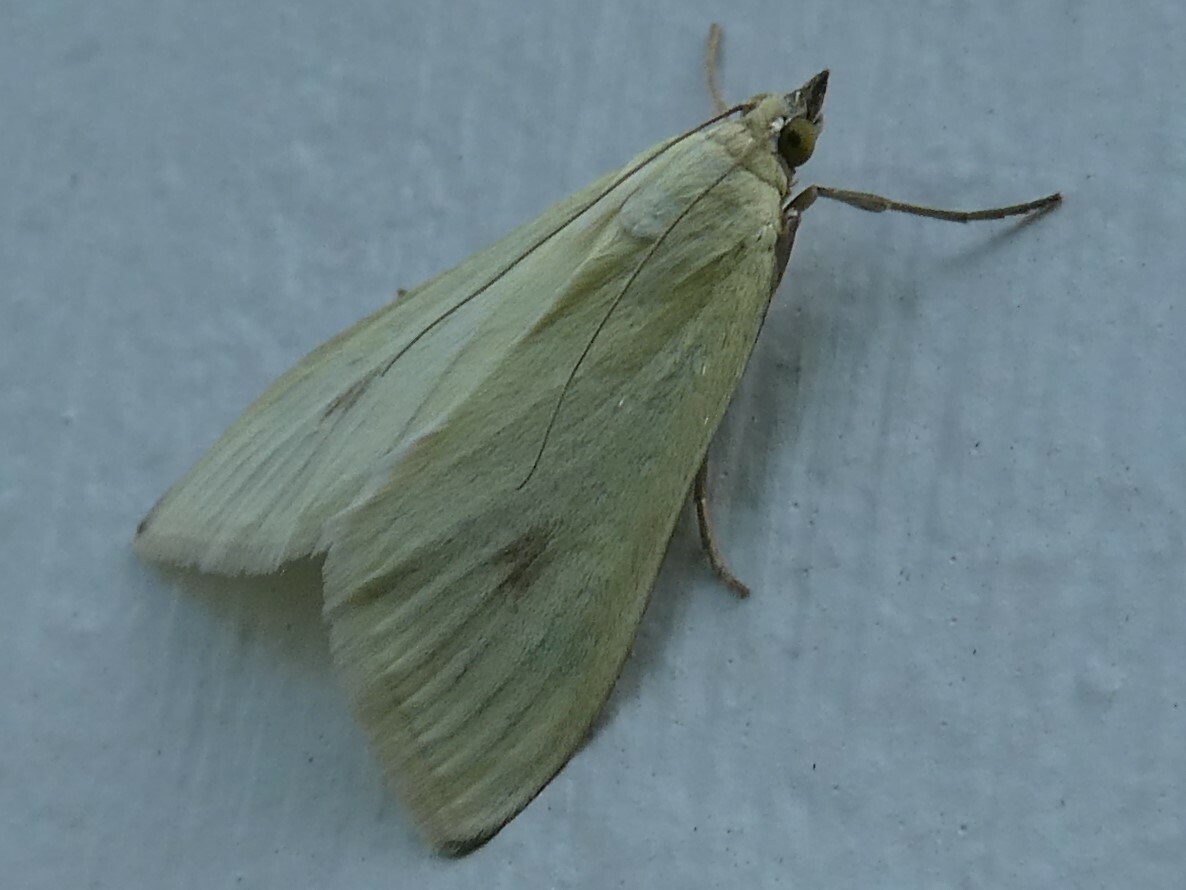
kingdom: Animalia
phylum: Arthropoda
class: Insecta
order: Lepidoptera
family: Crambidae
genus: Sitochroa
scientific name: Sitochroa palealis
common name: Greenish-yellow sitochroa moth
